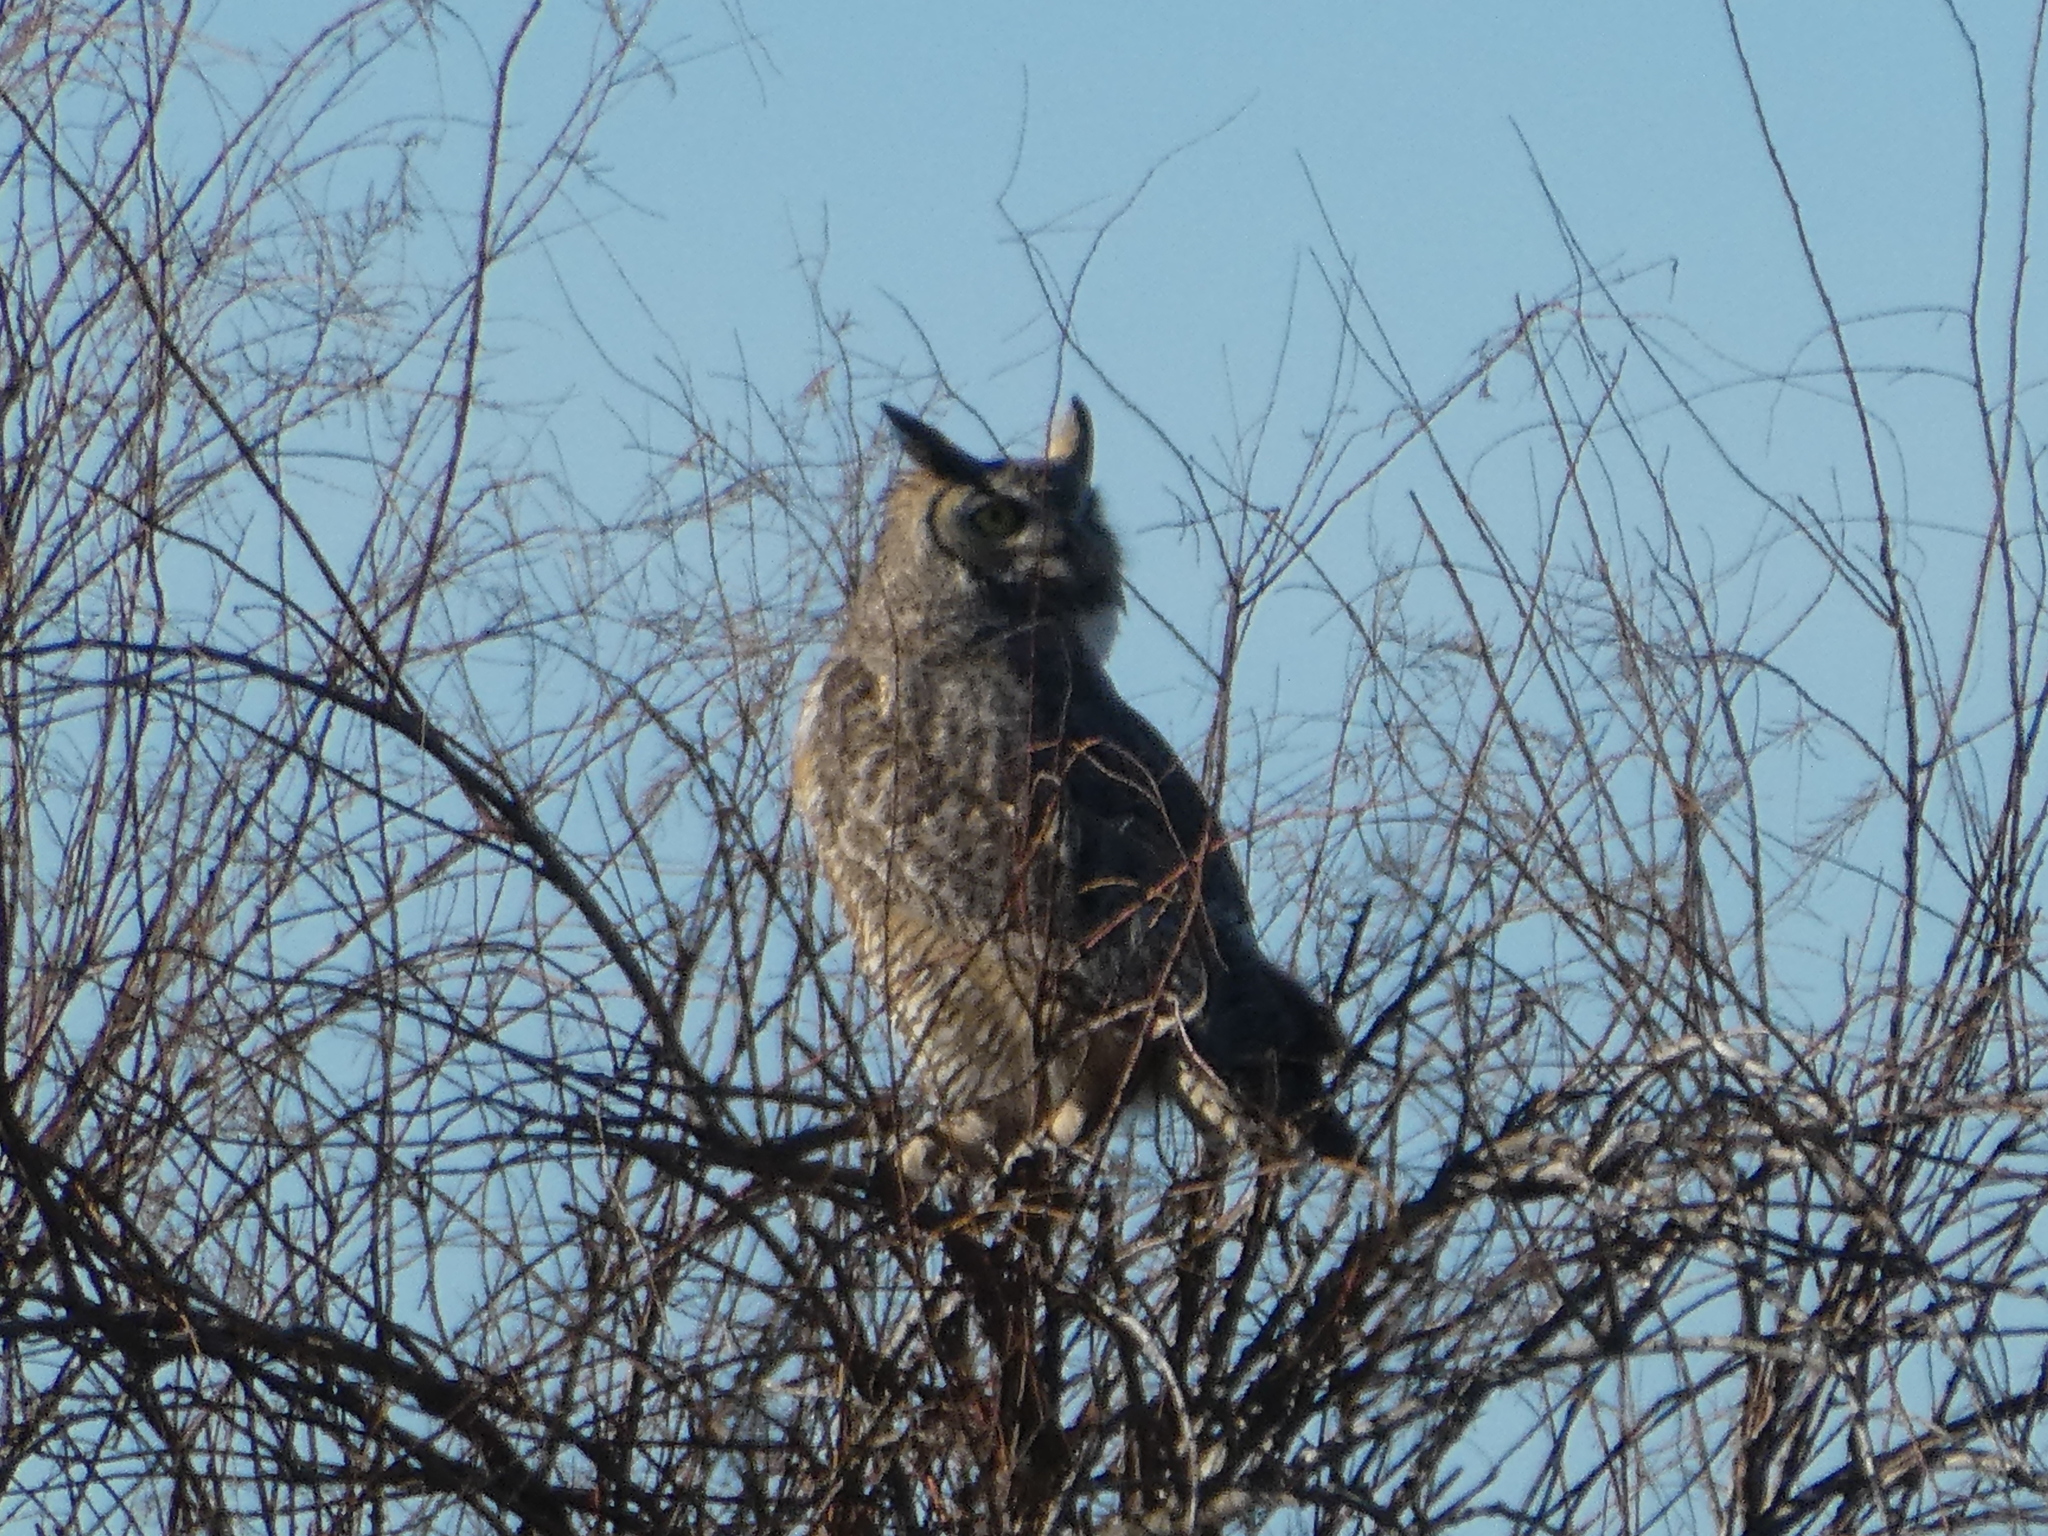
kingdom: Animalia
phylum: Chordata
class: Aves
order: Strigiformes
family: Strigidae
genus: Bubo
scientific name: Bubo virginianus
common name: Great horned owl
